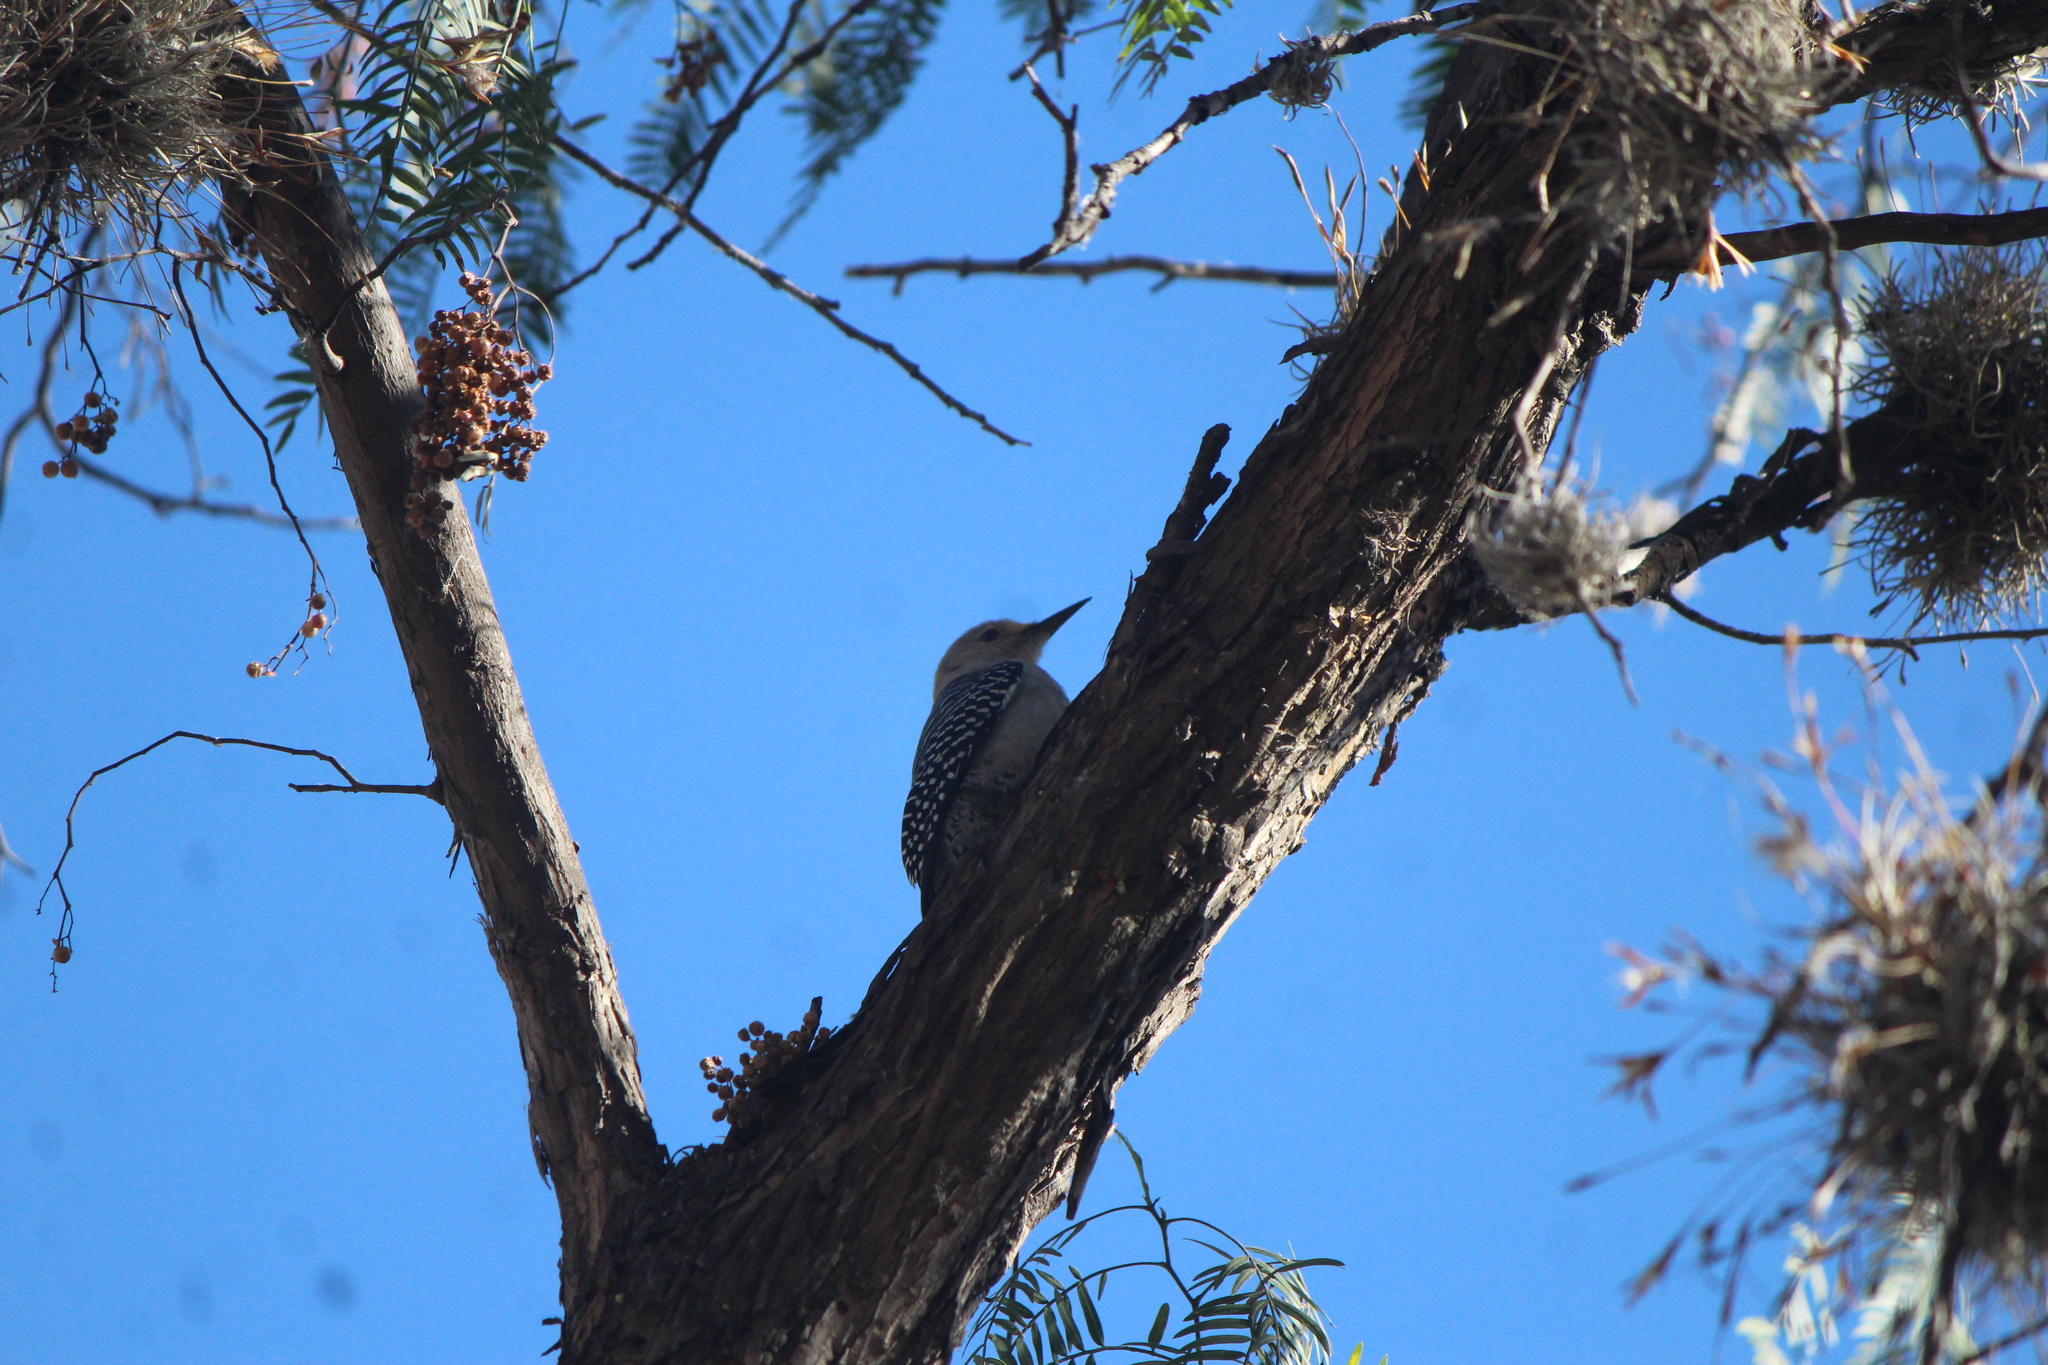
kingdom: Animalia
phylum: Chordata
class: Aves
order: Piciformes
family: Picidae
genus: Melanerpes
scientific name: Melanerpes aurifrons
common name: Golden-fronted woodpecker
